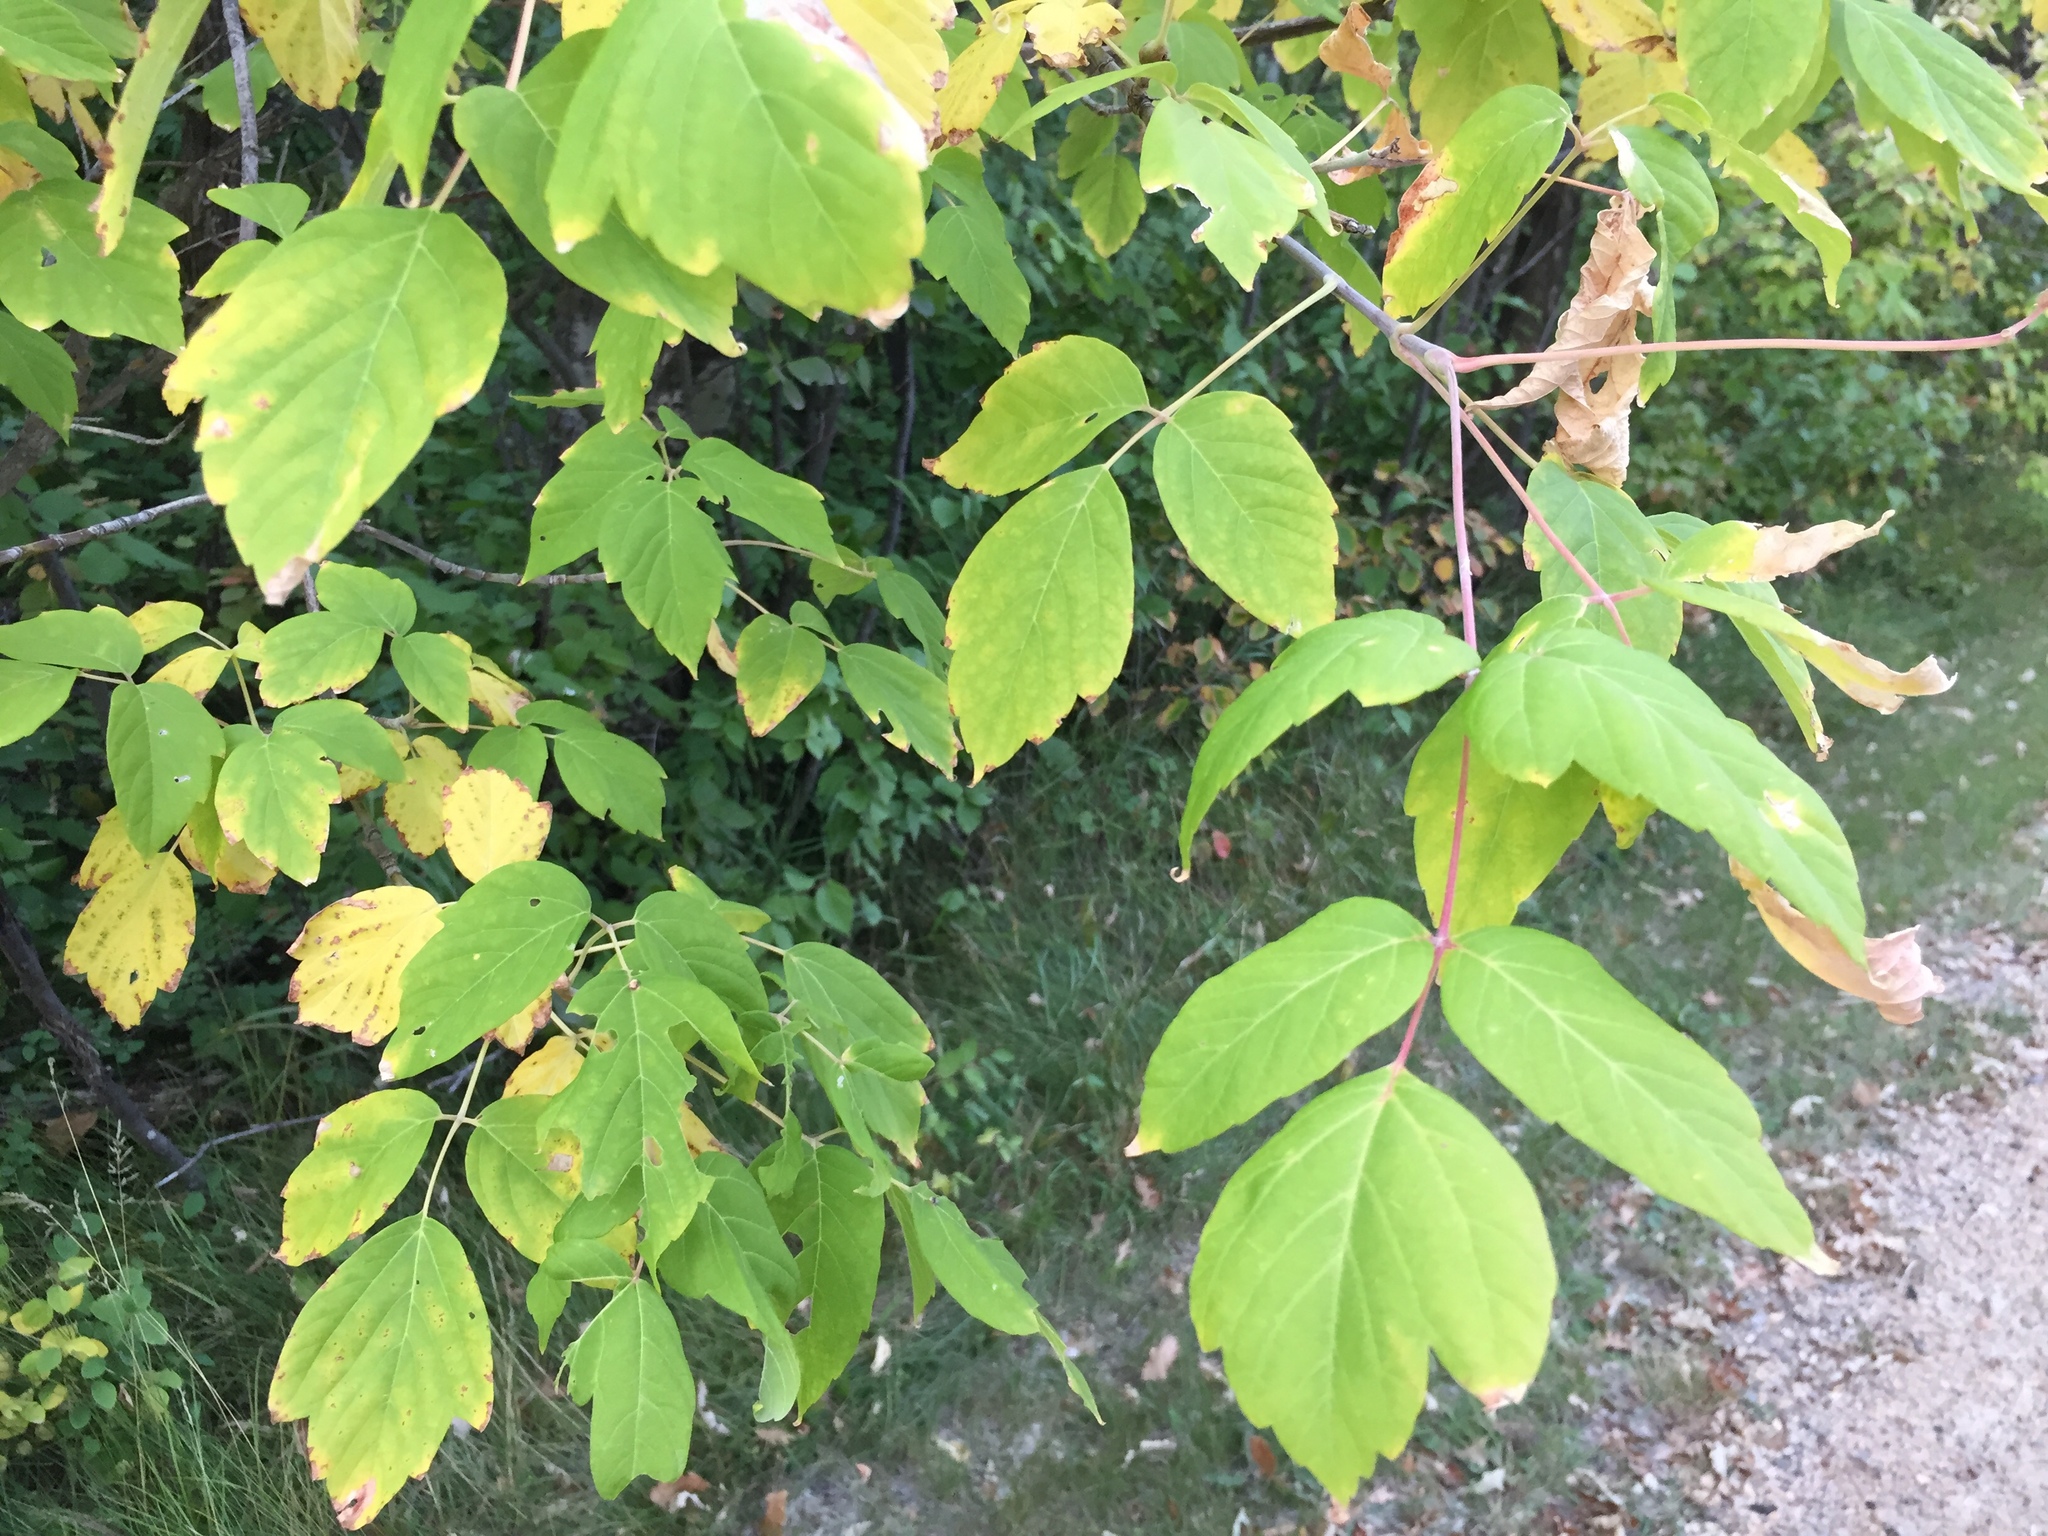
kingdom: Plantae
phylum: Tracheophyta
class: Magnoliopsida
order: Sapindales
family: Sapindaceae
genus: Acer
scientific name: Acer negundo
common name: Ashleaf maple
